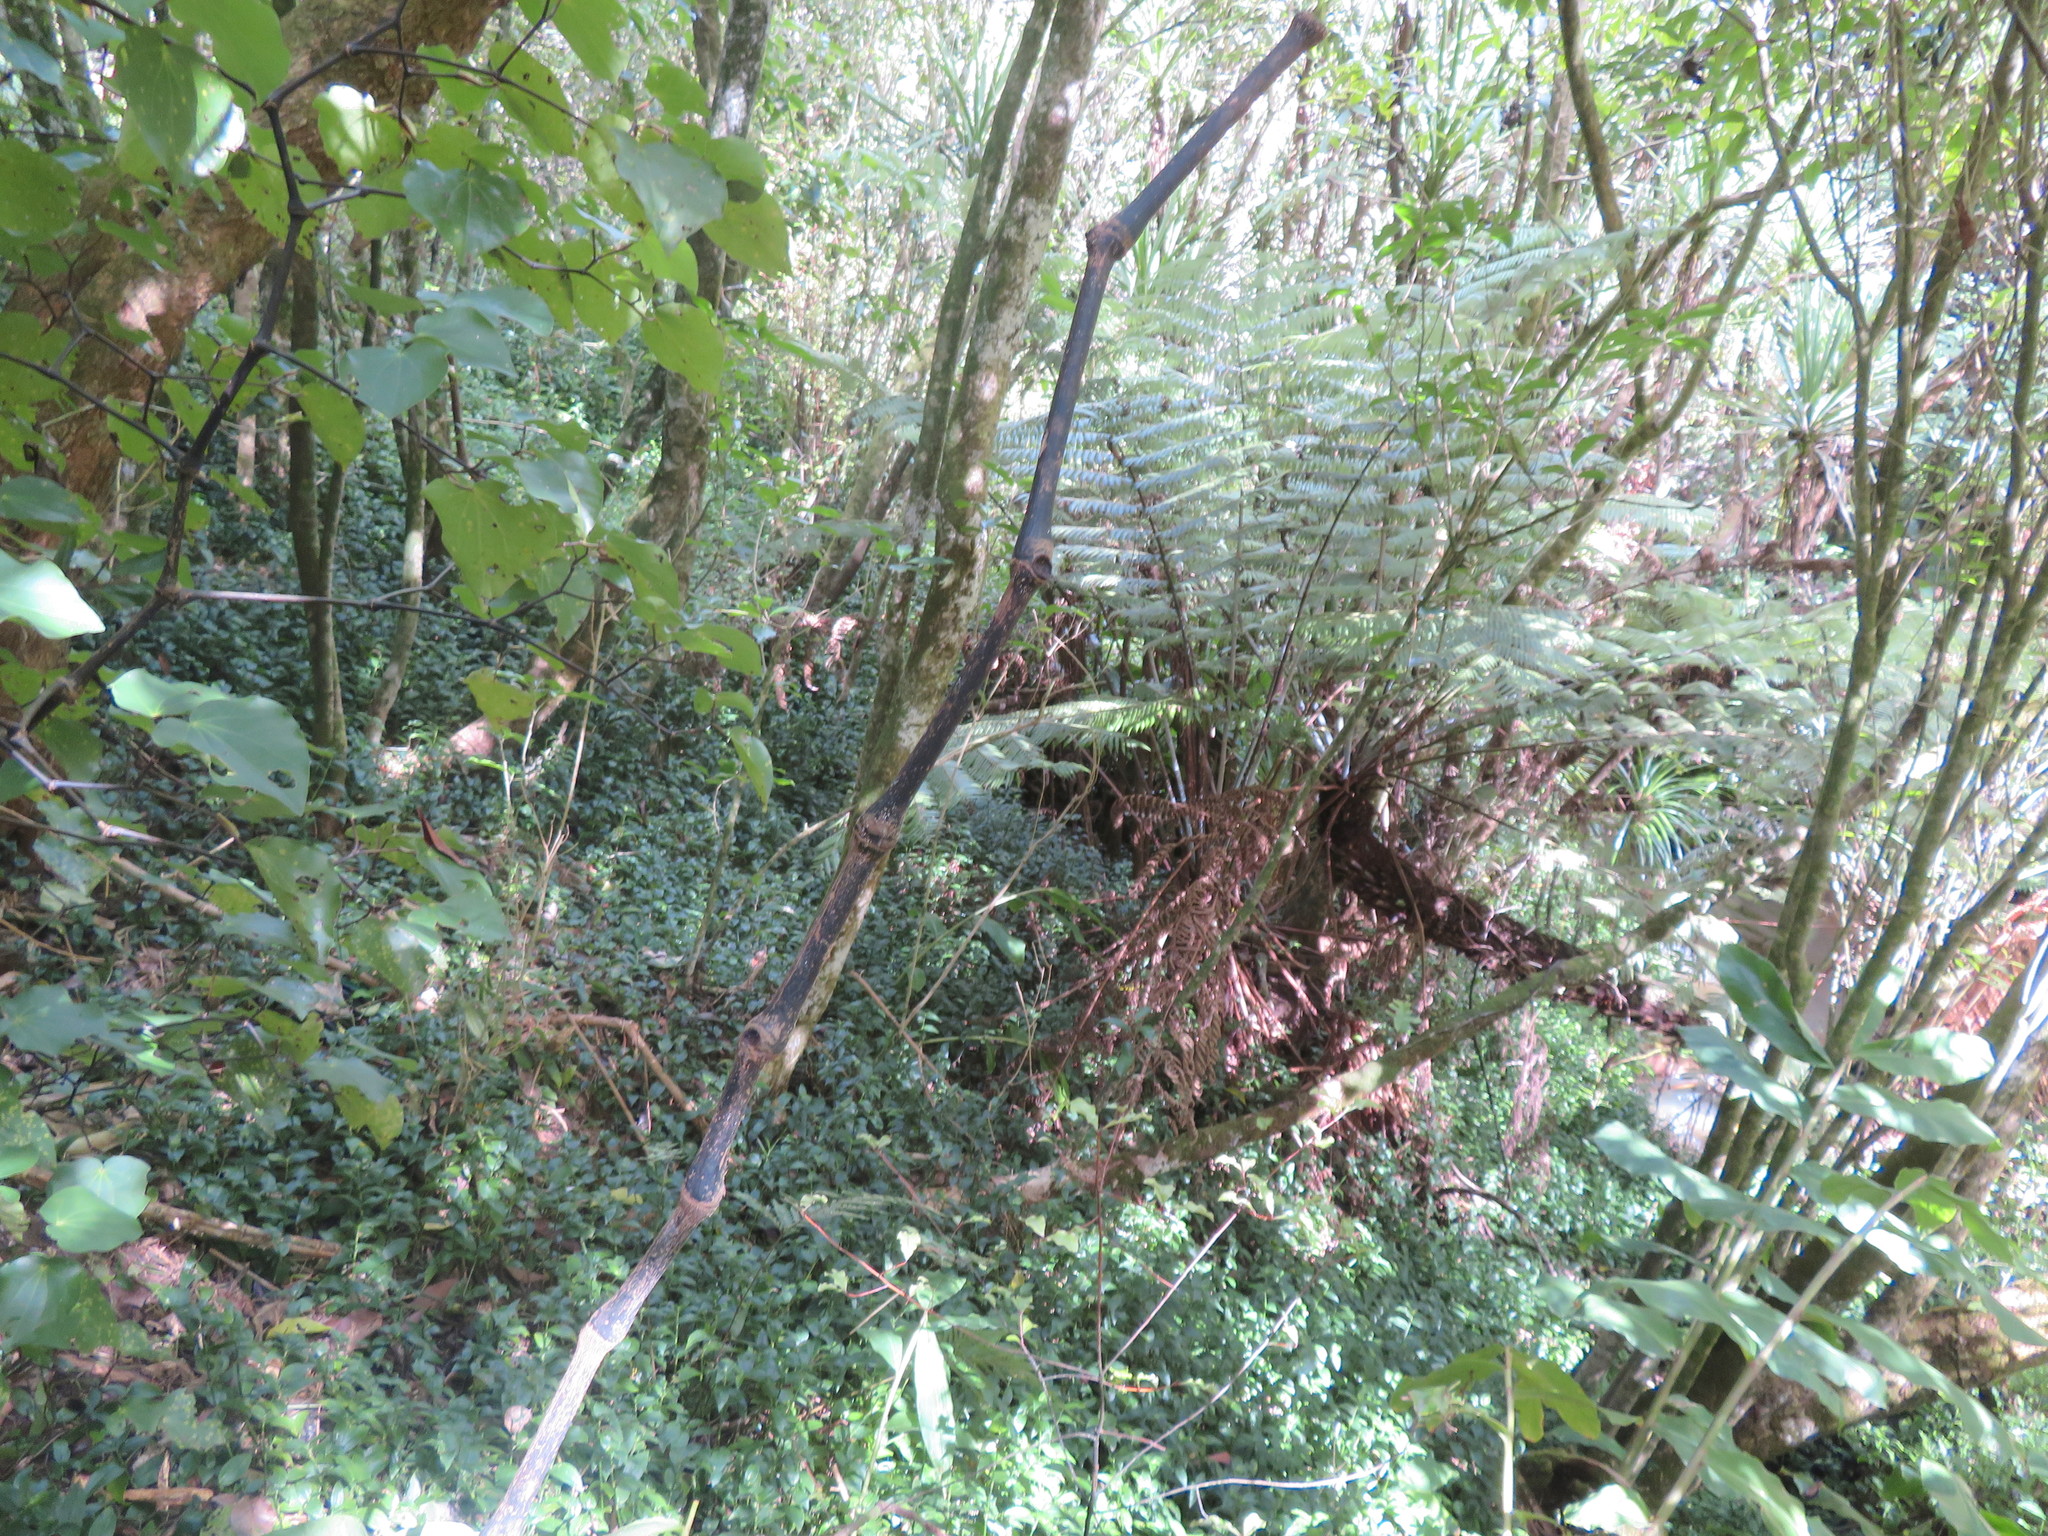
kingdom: Plantae
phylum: Tracheophyta
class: Liliopsida
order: Commelinales
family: Commelinaceae
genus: Tradescantia
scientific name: Tradescantia fluminensis
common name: Wandering-jew
